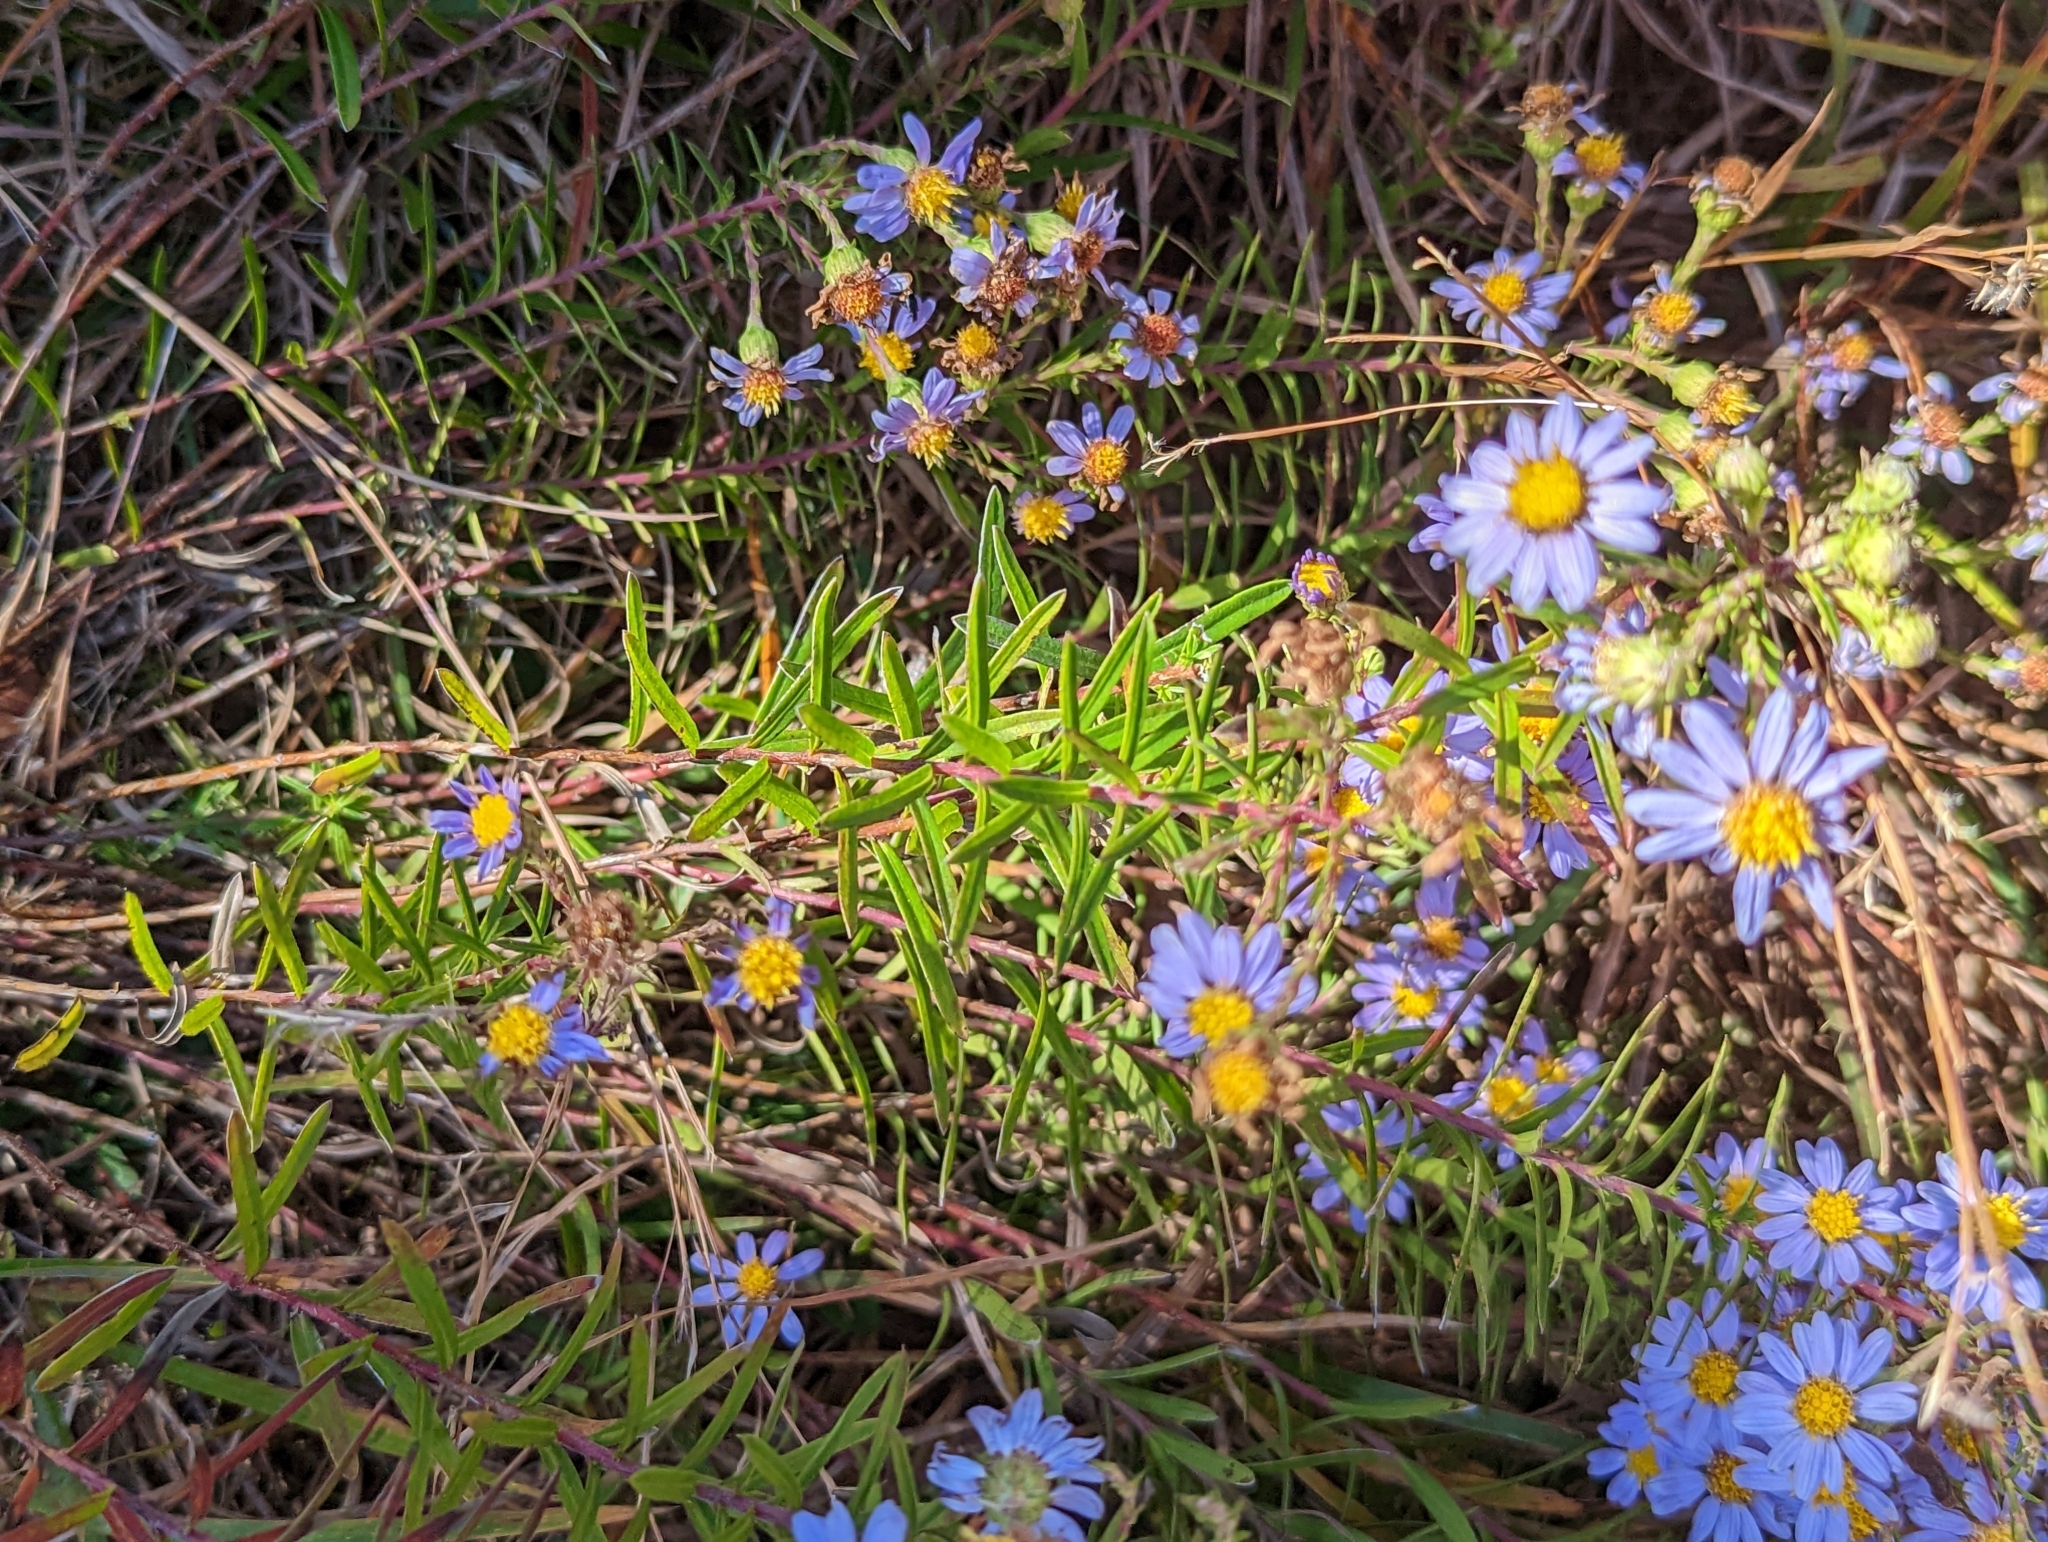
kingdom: Plantae
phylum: Tracheophyta
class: Magnoliopsida
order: Asterales
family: Asteraceae
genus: Ionactis
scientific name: Ionactis linariifolia
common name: Flax-leaf aster
